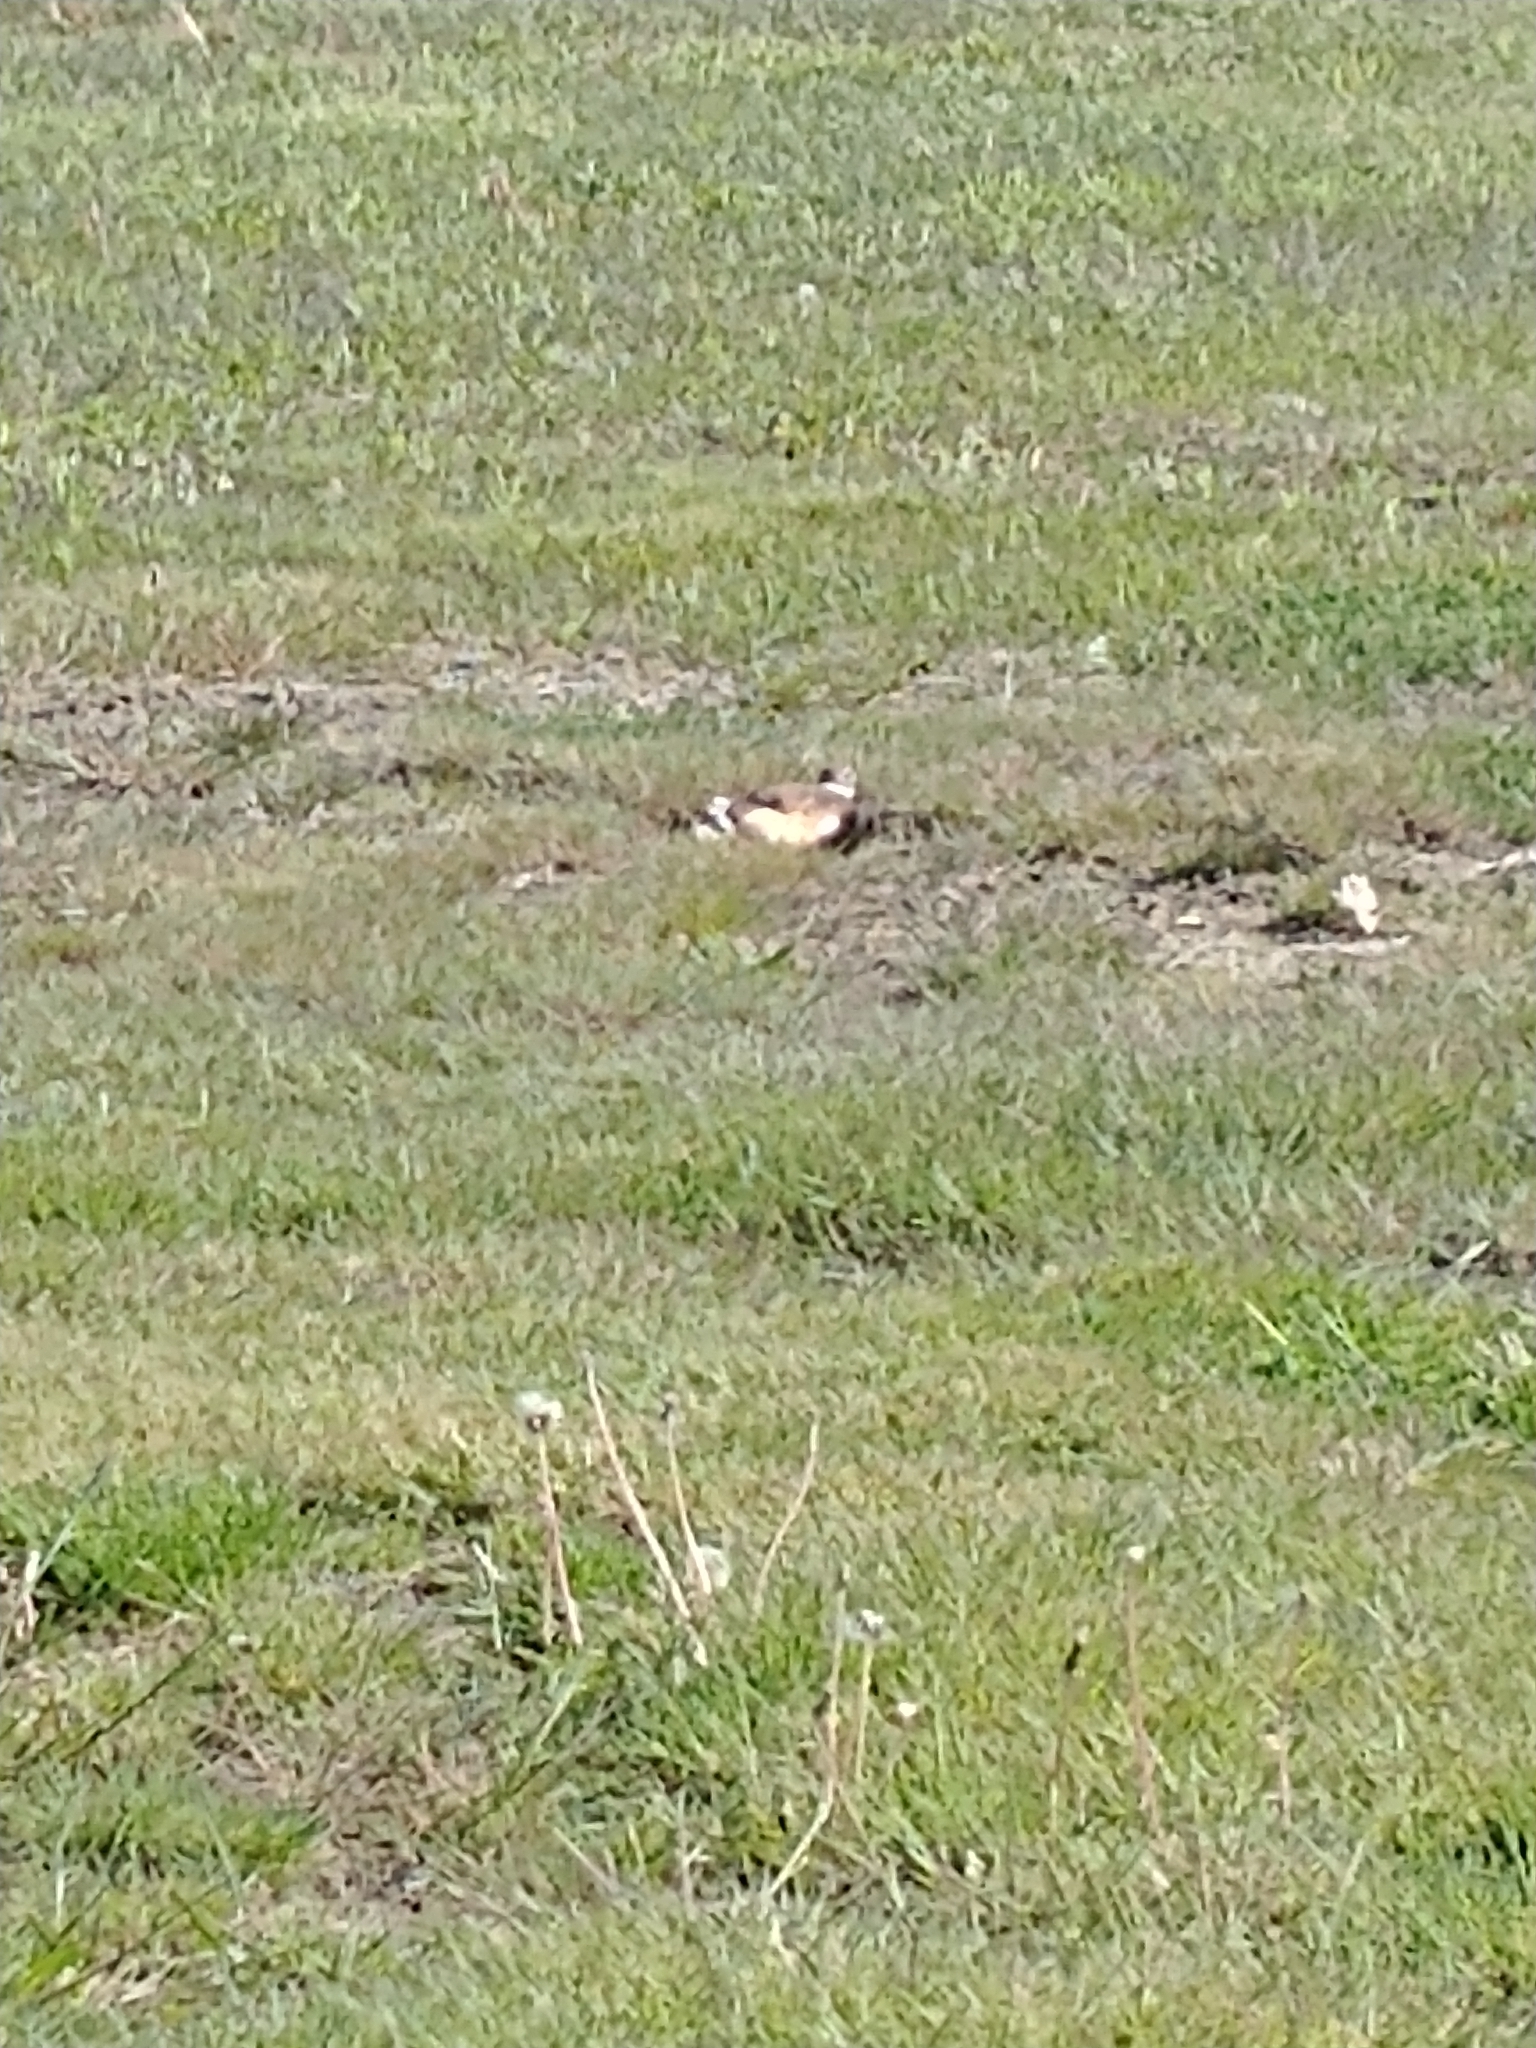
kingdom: Animalia
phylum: Chordata
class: Aves
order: Charadriiformes
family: Charadriidae
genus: Charadrius
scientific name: Charadrius vociferus
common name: Killdeer
